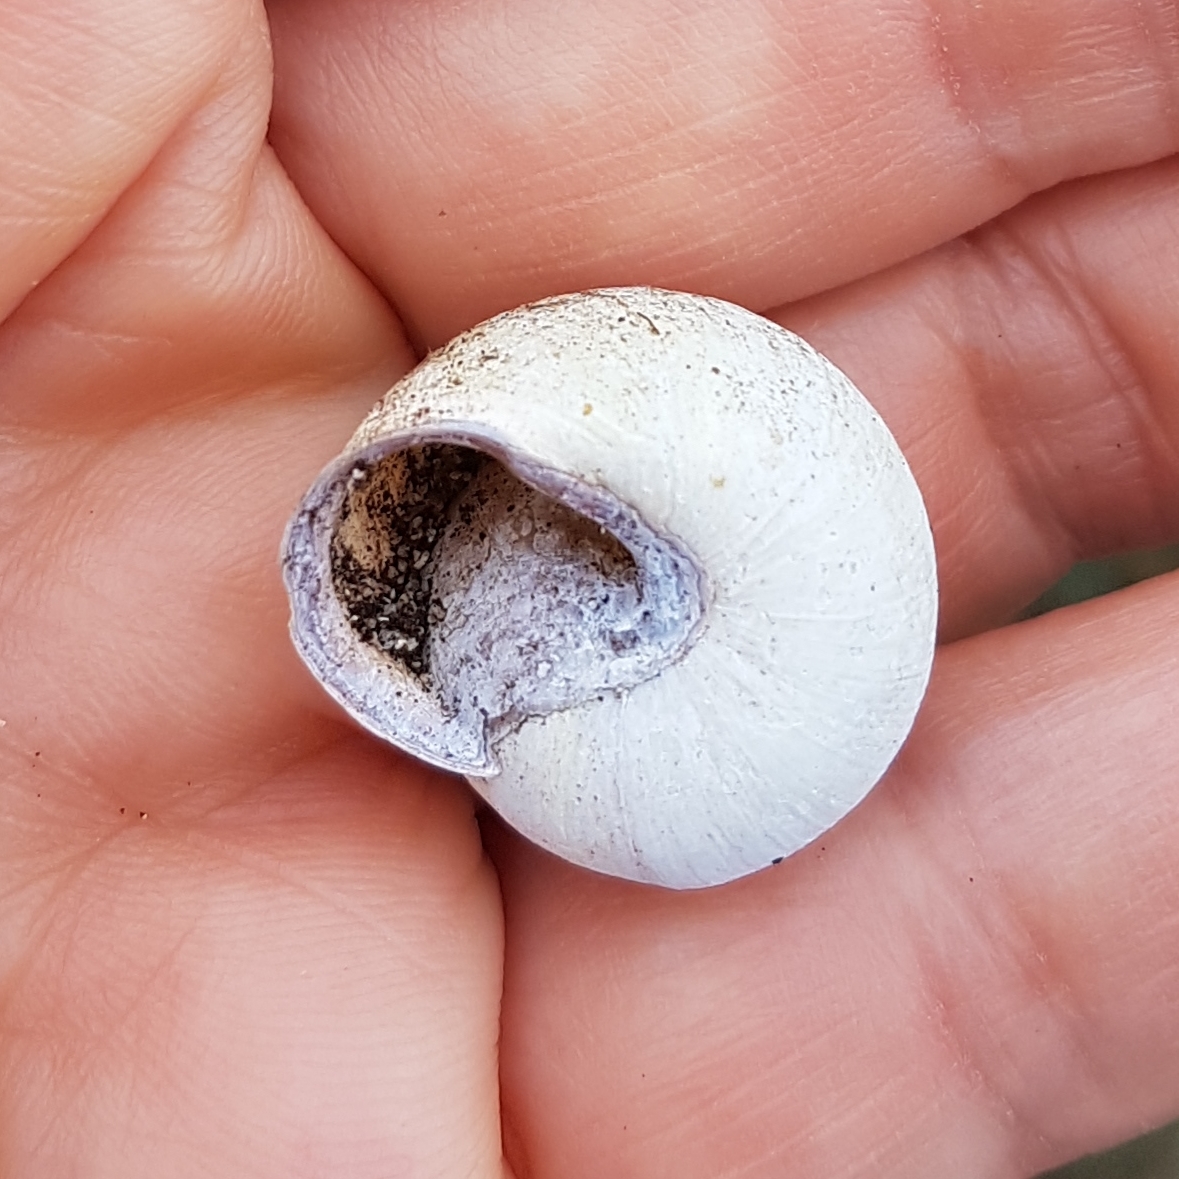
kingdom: Animalia
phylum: Mollusca
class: Gastropoda
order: Stylommatophora
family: Helicidae
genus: Cepaea
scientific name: Cepaea nemoralis
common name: Grovesnail
